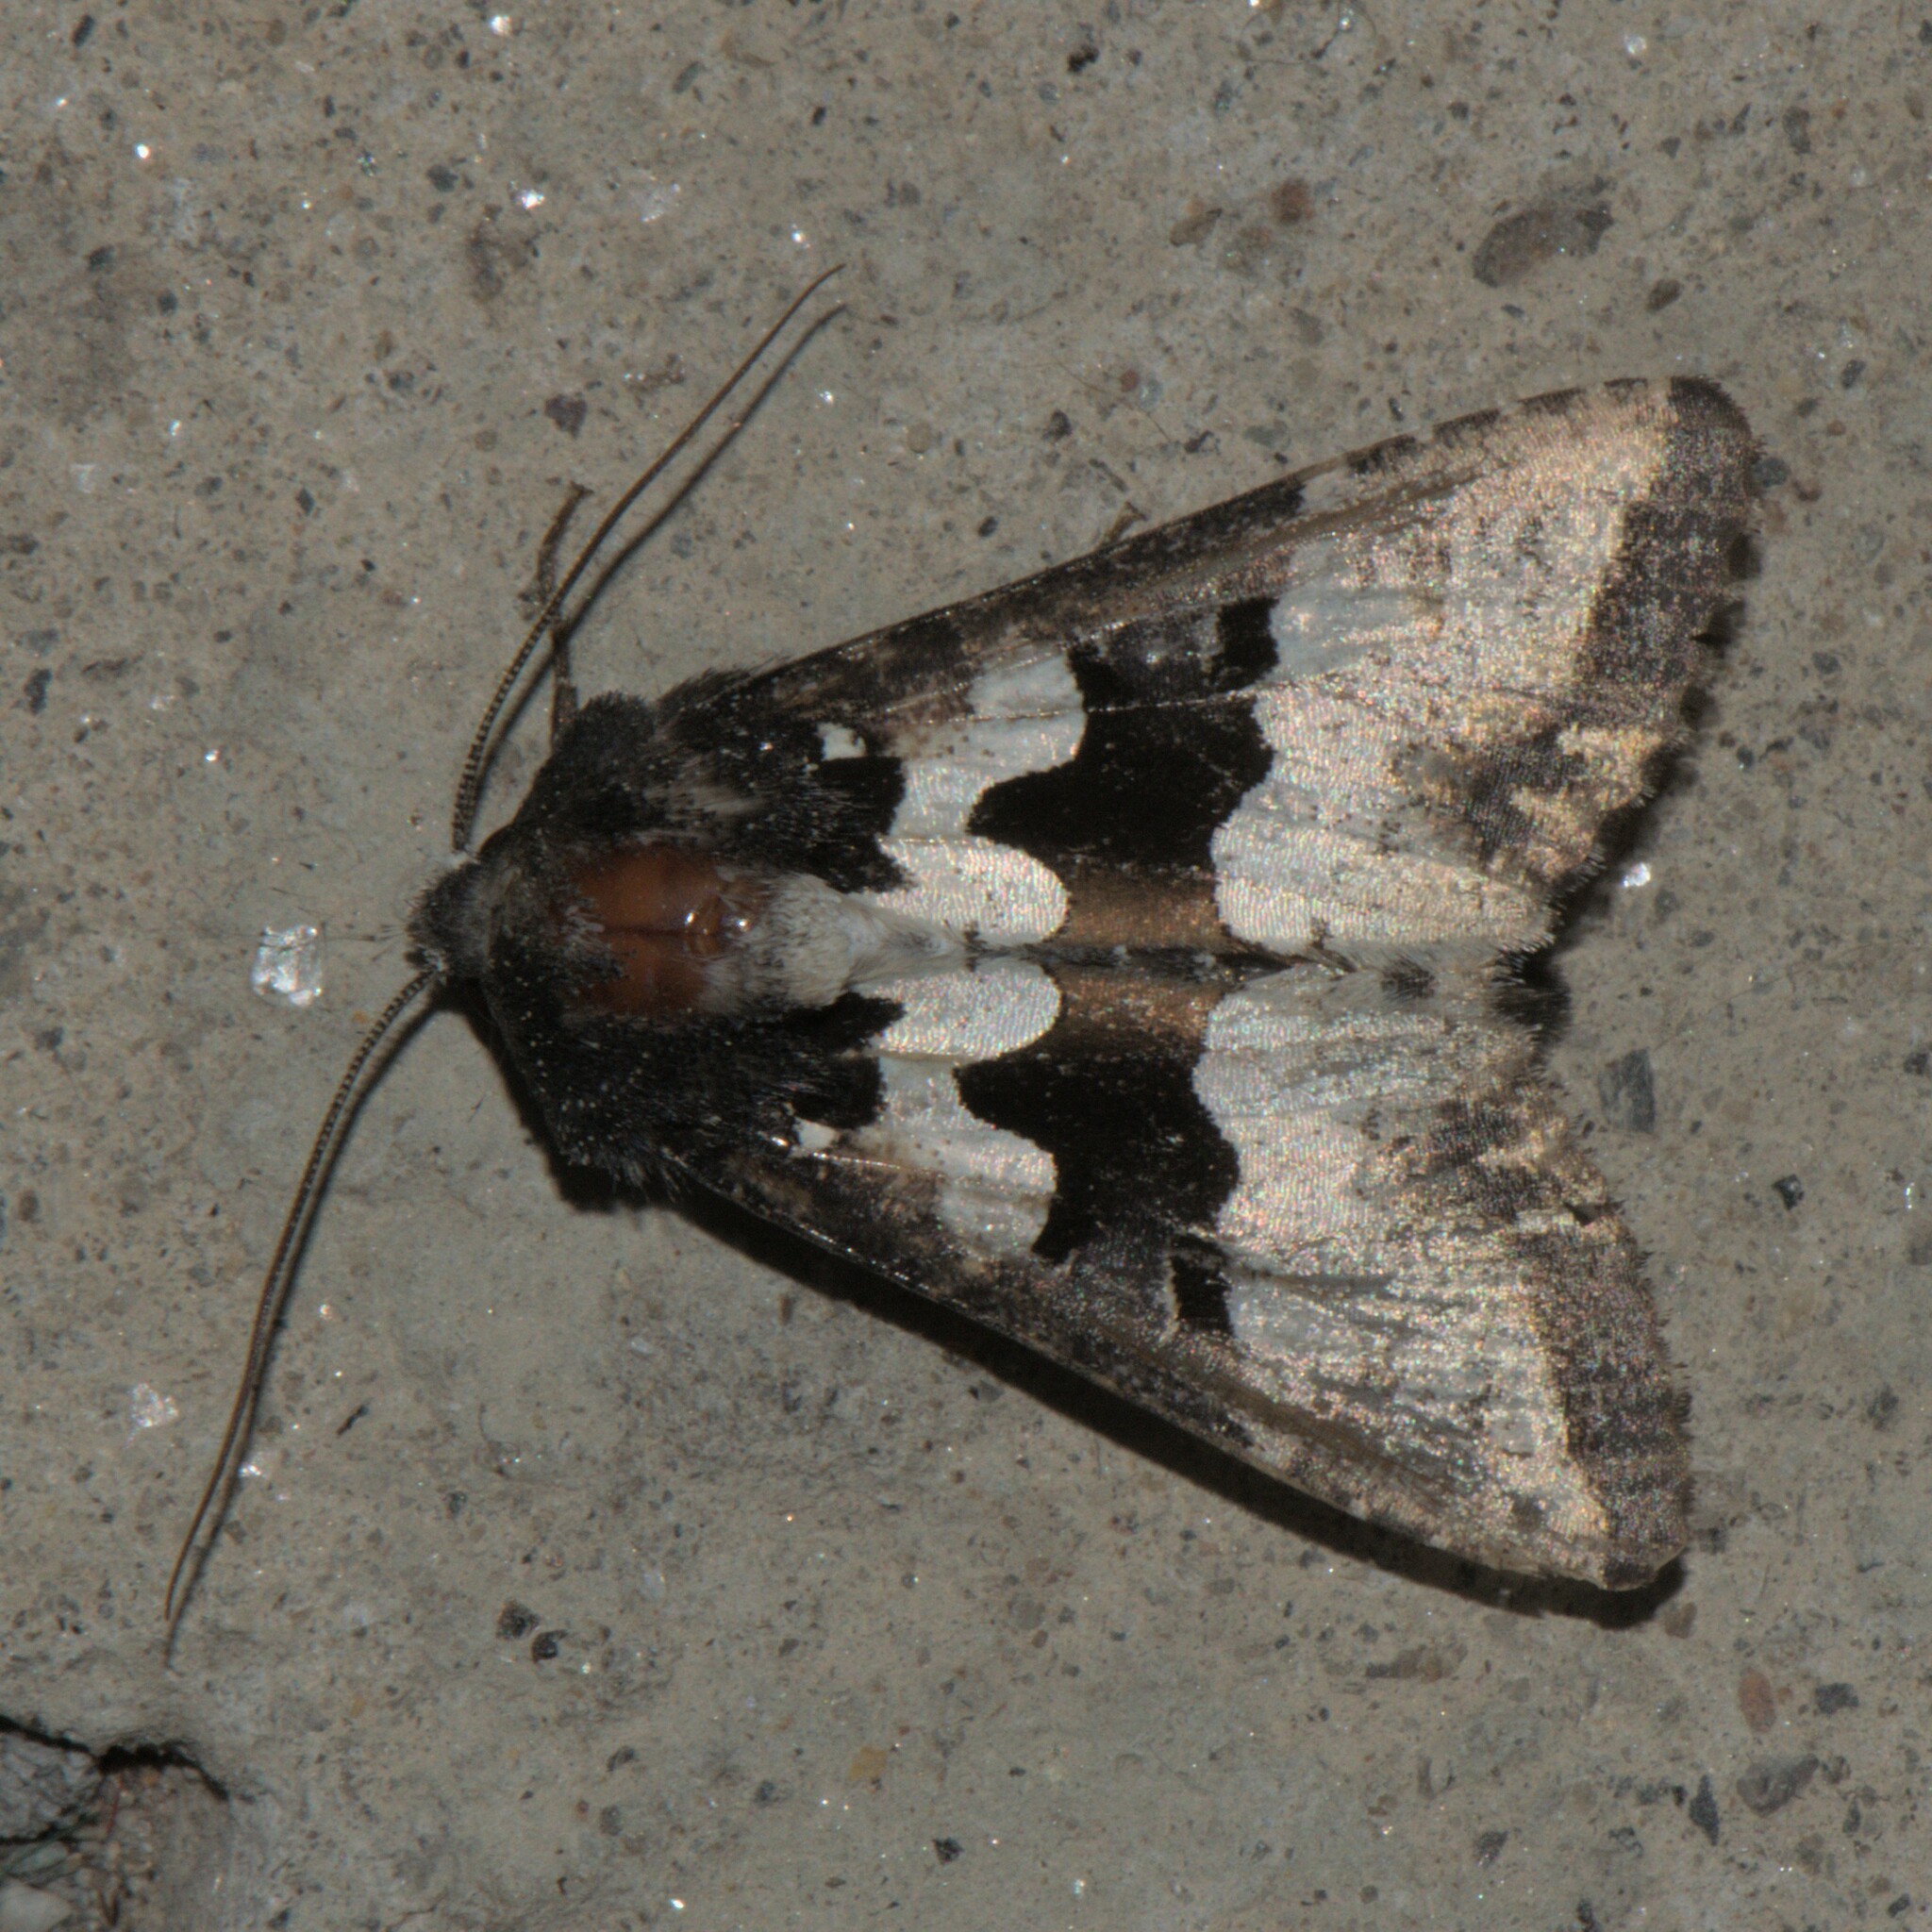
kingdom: Animalia
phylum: Arthropoda
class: Insecta
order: Lepidoptera
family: Noctuidae
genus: Phlogophora
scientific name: Phlogophora albovittata
